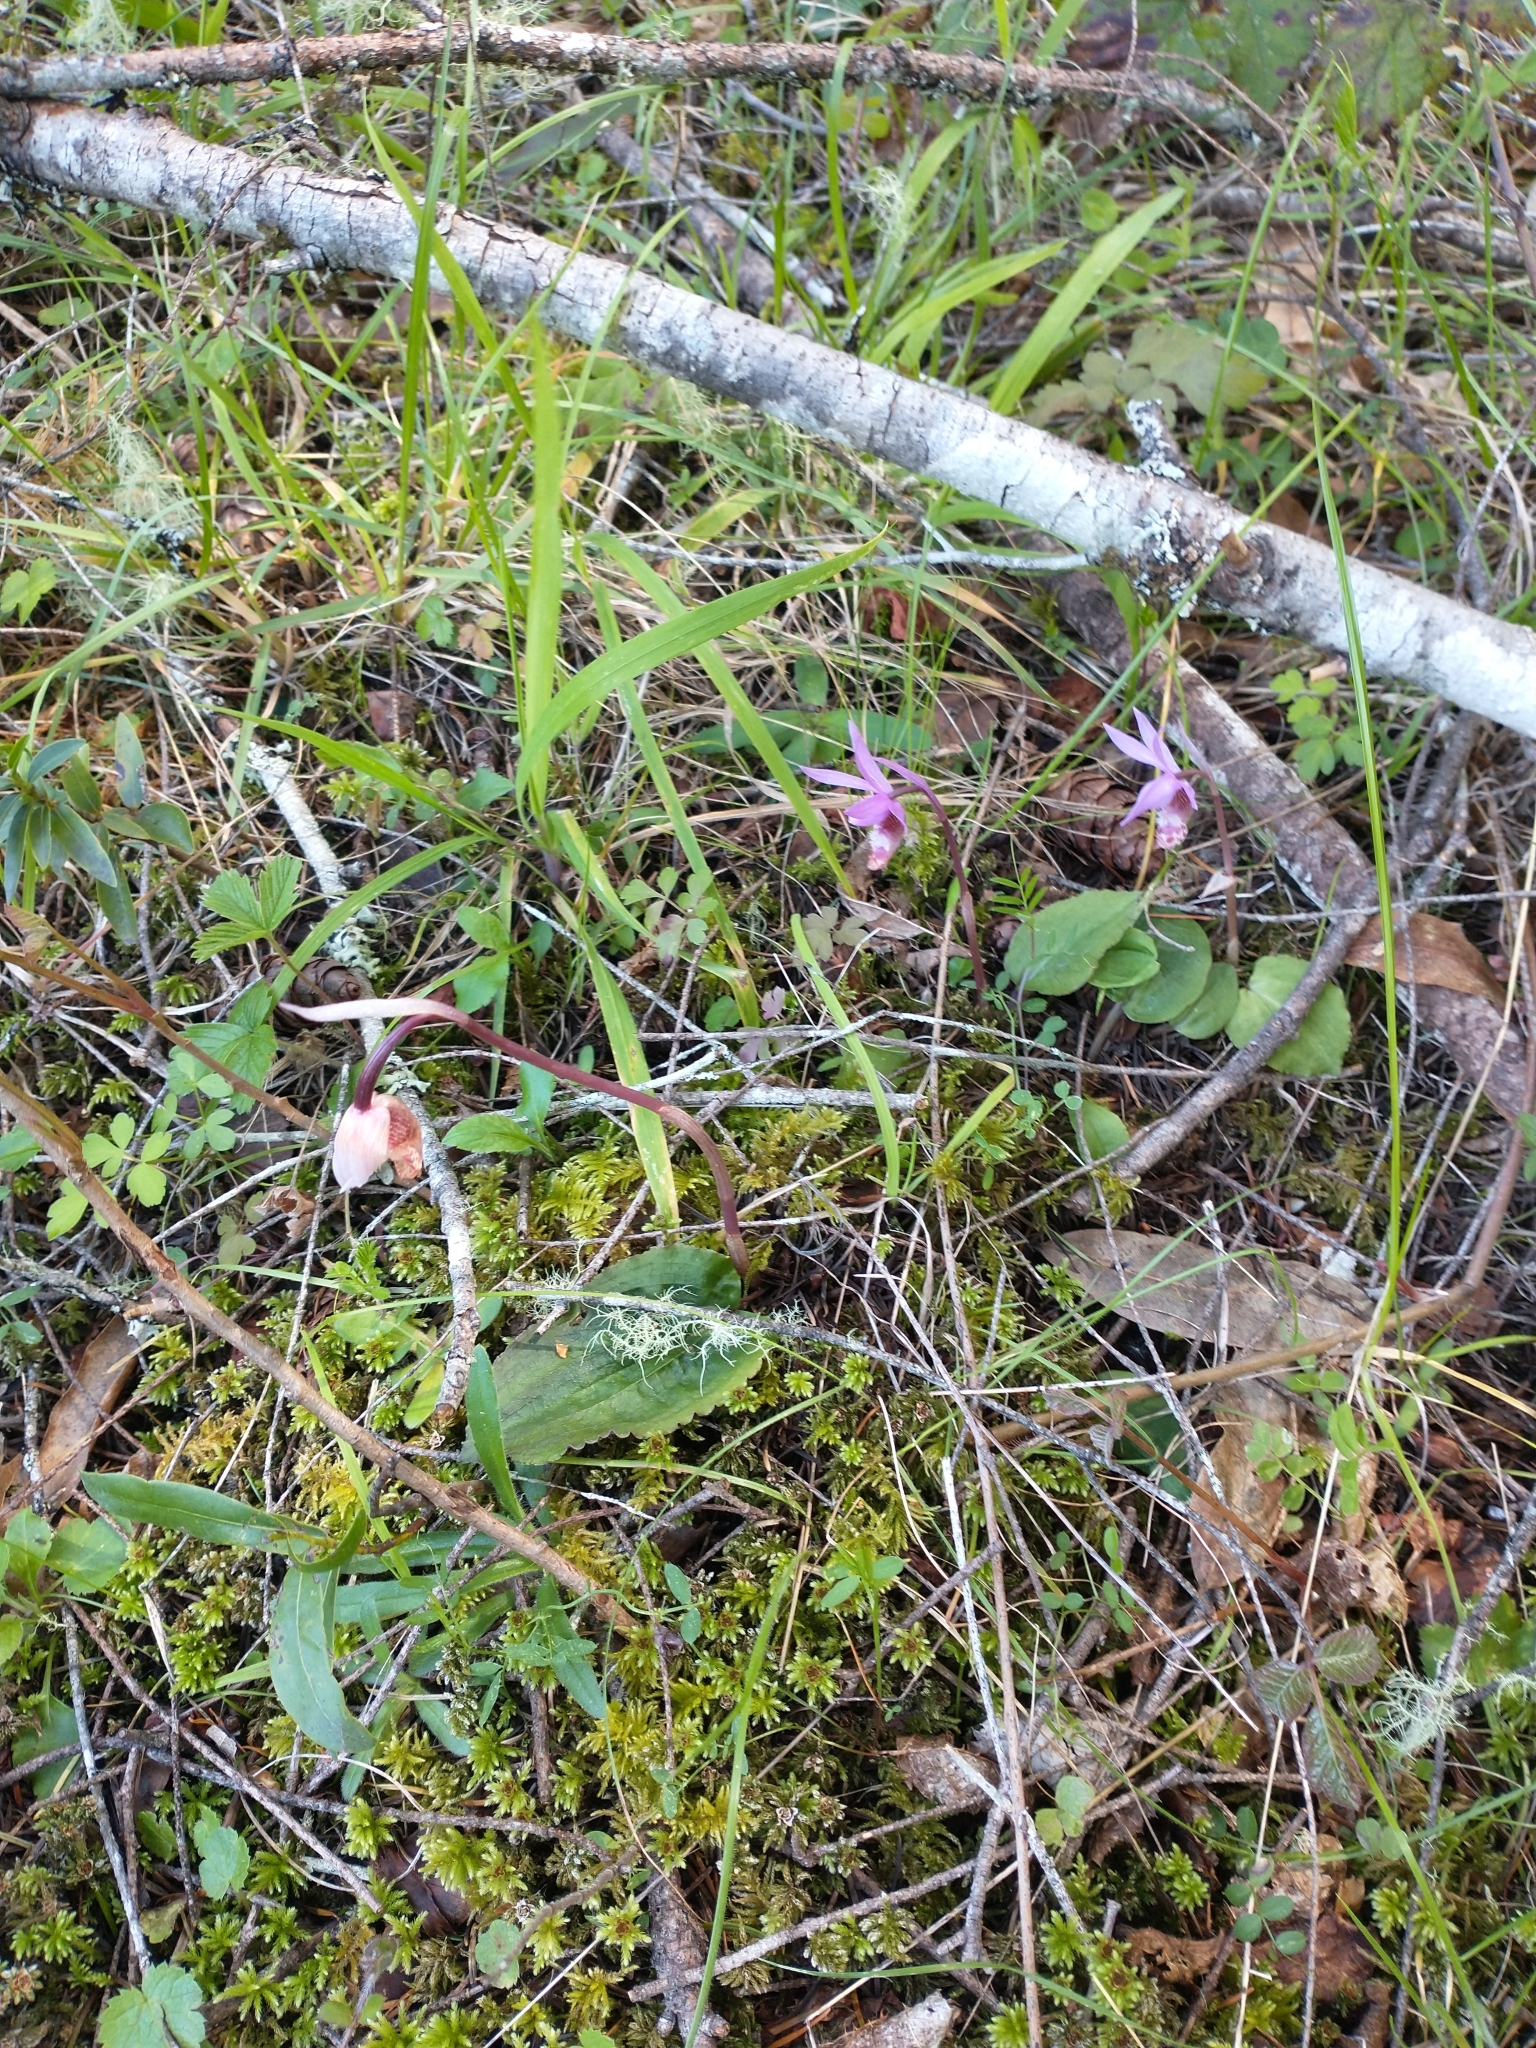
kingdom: Plantae
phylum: Tracheophyta
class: Liliopsida
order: Asparagales
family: Orchidaceae
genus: Calypso
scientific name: Calypso bulbosa
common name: Calypso
